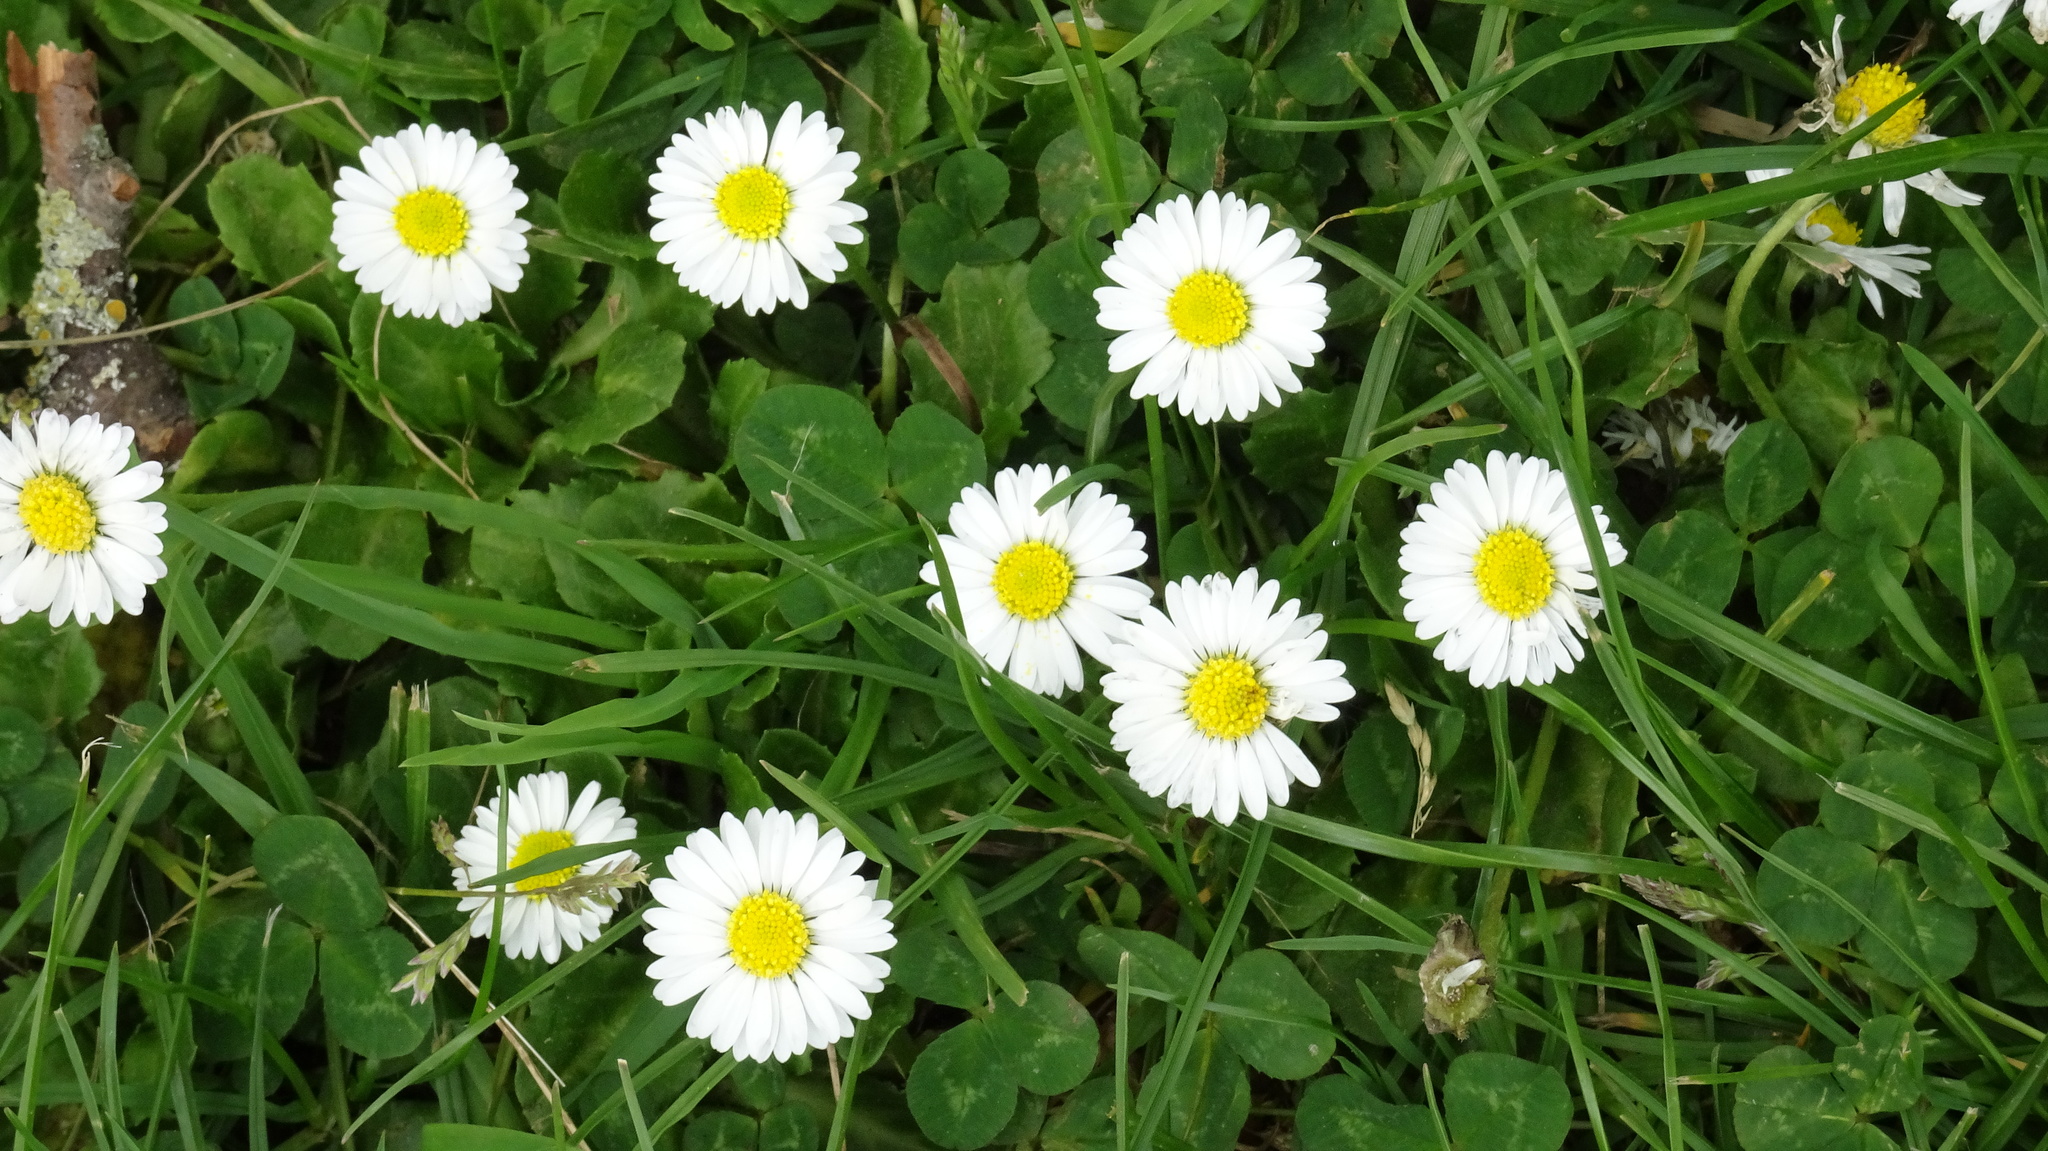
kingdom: Plantae
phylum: Tracheophyta
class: Magnoliopsida
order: Asterales
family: Asteraceae
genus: Bellis
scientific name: Bellis perennis
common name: Lawndaisy
